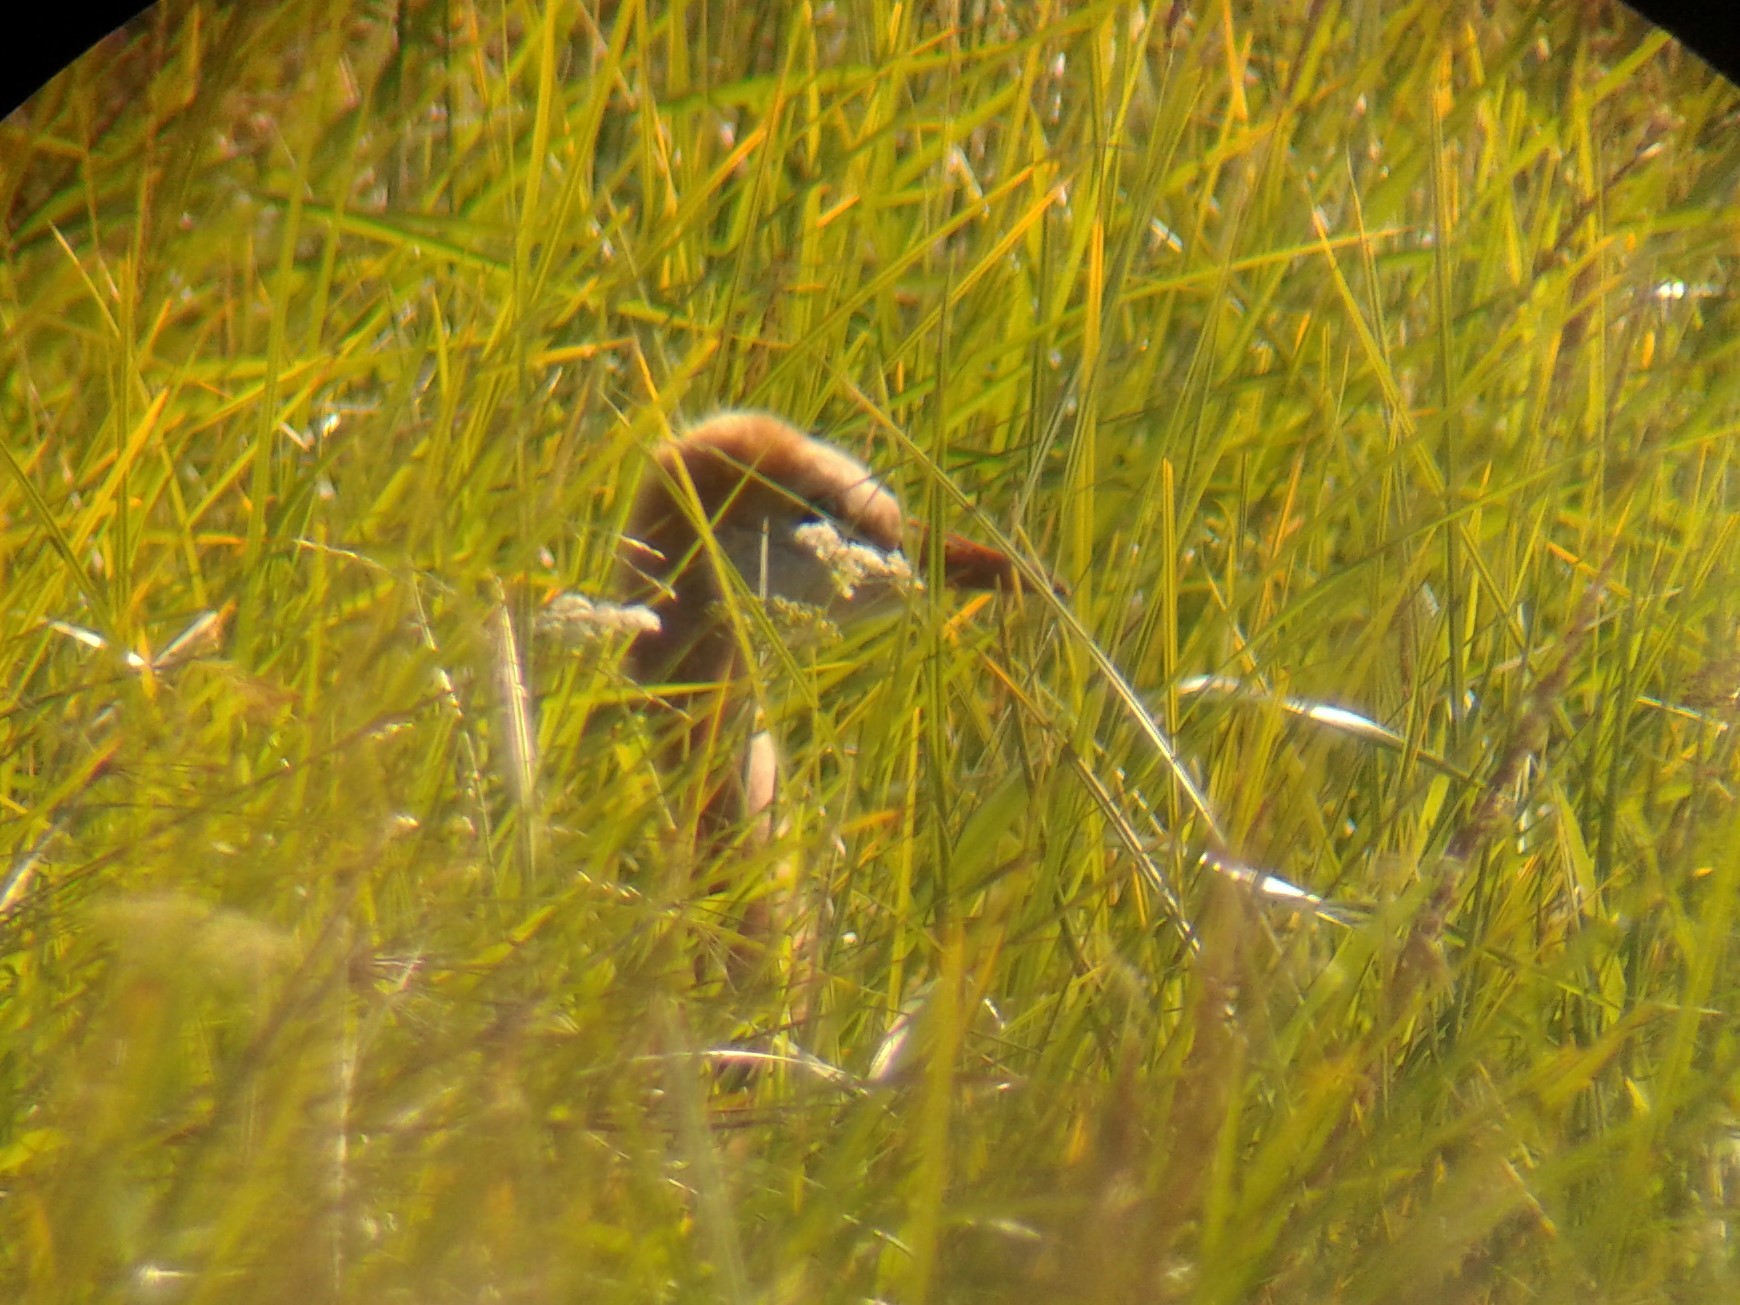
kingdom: Animalia
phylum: Chordata
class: Aves
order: Gruiformes
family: Gruidae
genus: Grus
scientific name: Grus canadensis
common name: Sandhill crane
